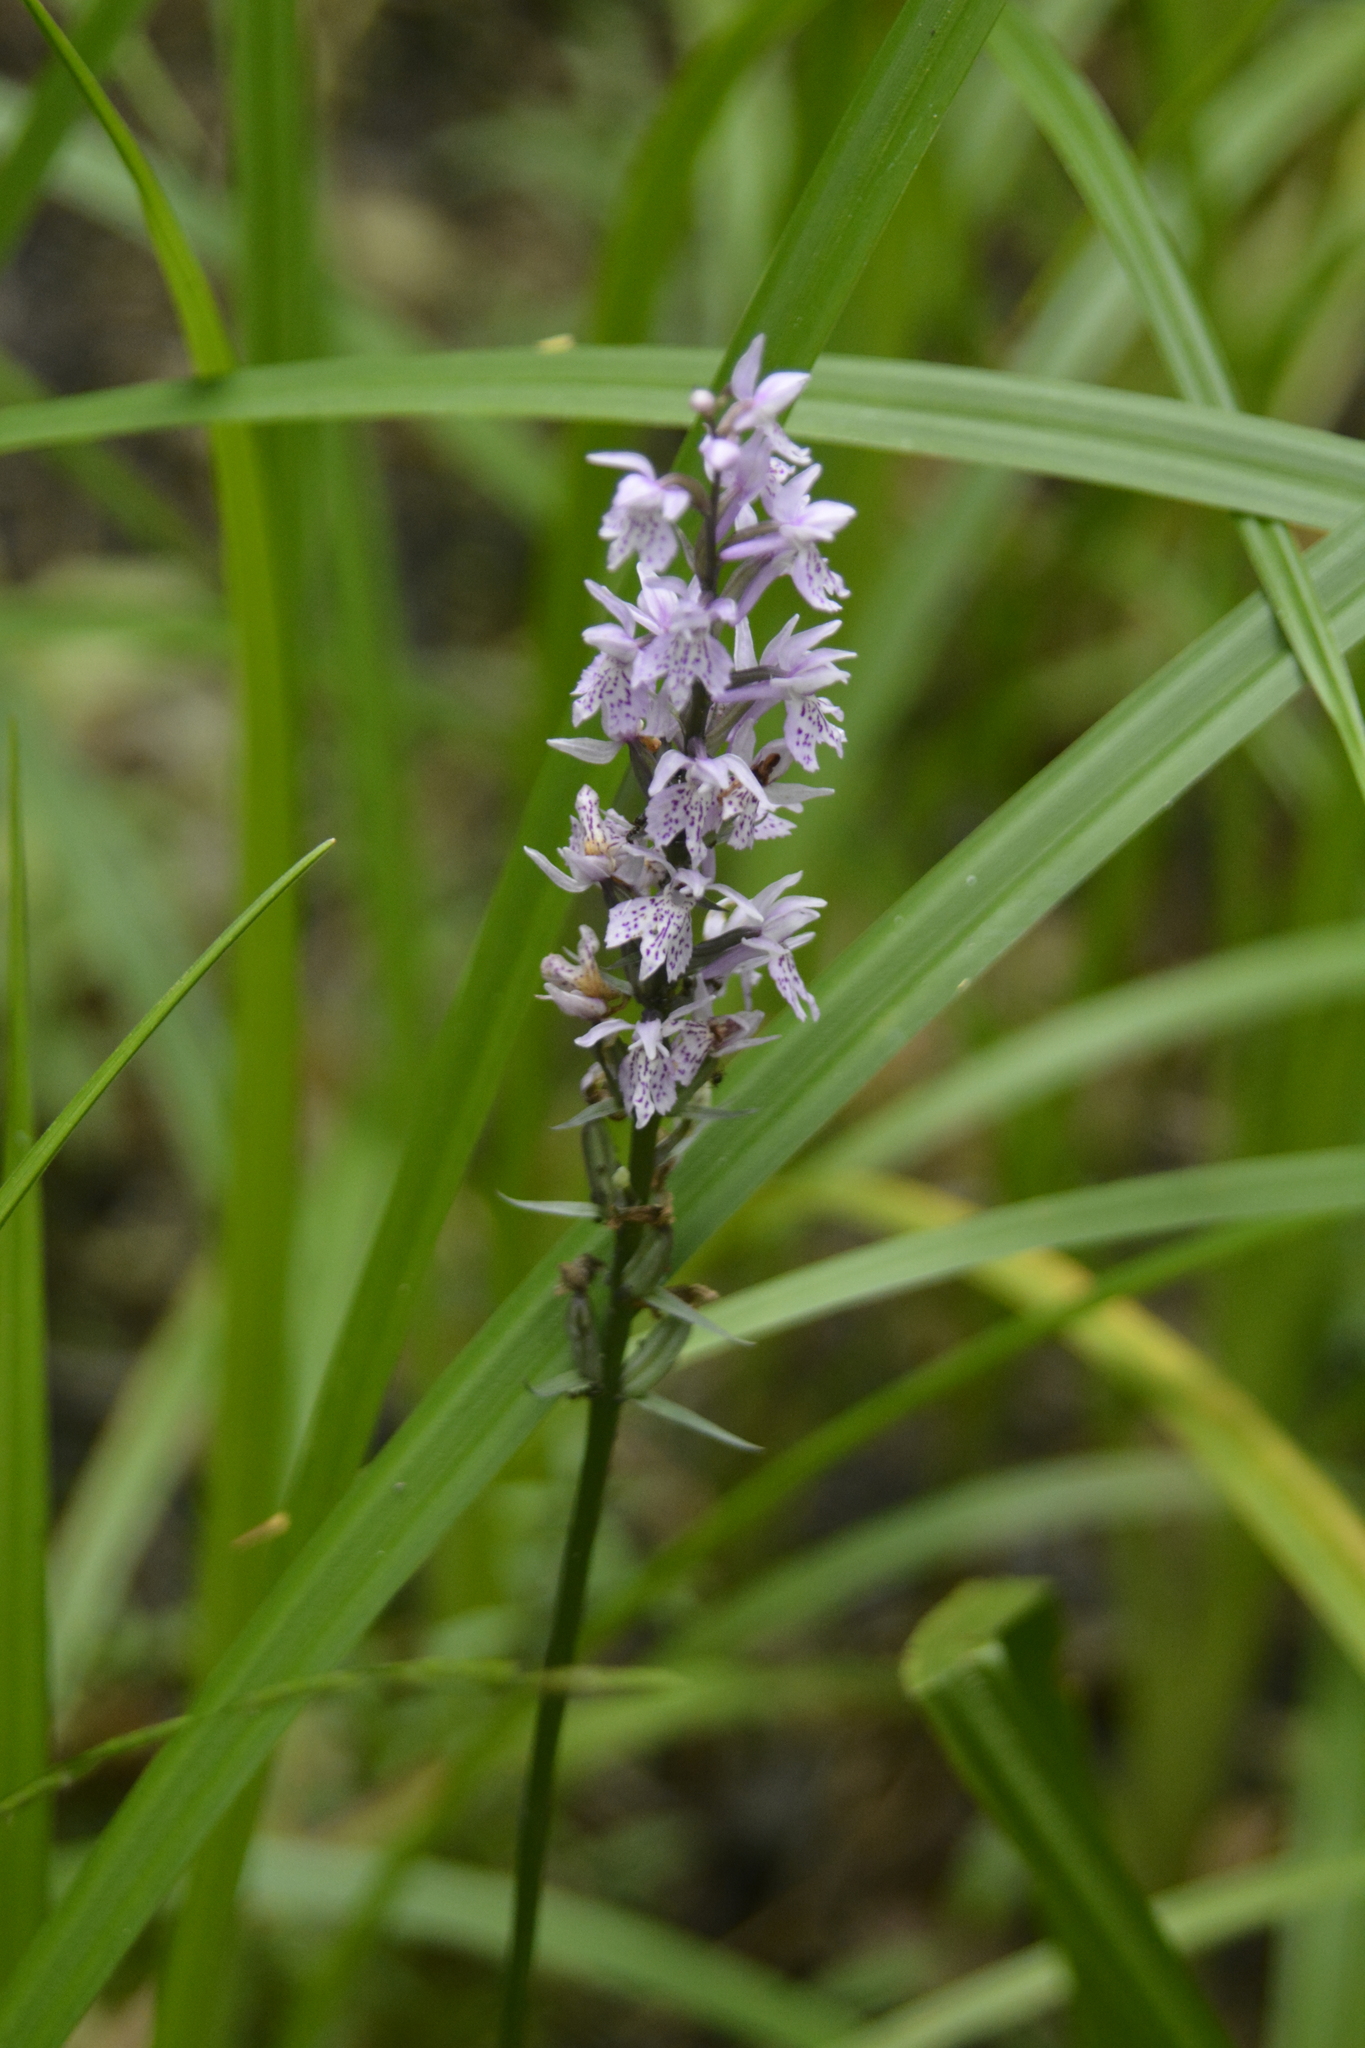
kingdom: Plantae
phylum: Tracheophyta
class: Liliopsida
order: Asparagales
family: Orchidaceae
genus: Dactylorhiza
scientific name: Dactylorhiza maculata
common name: Heath spotted-orchid
